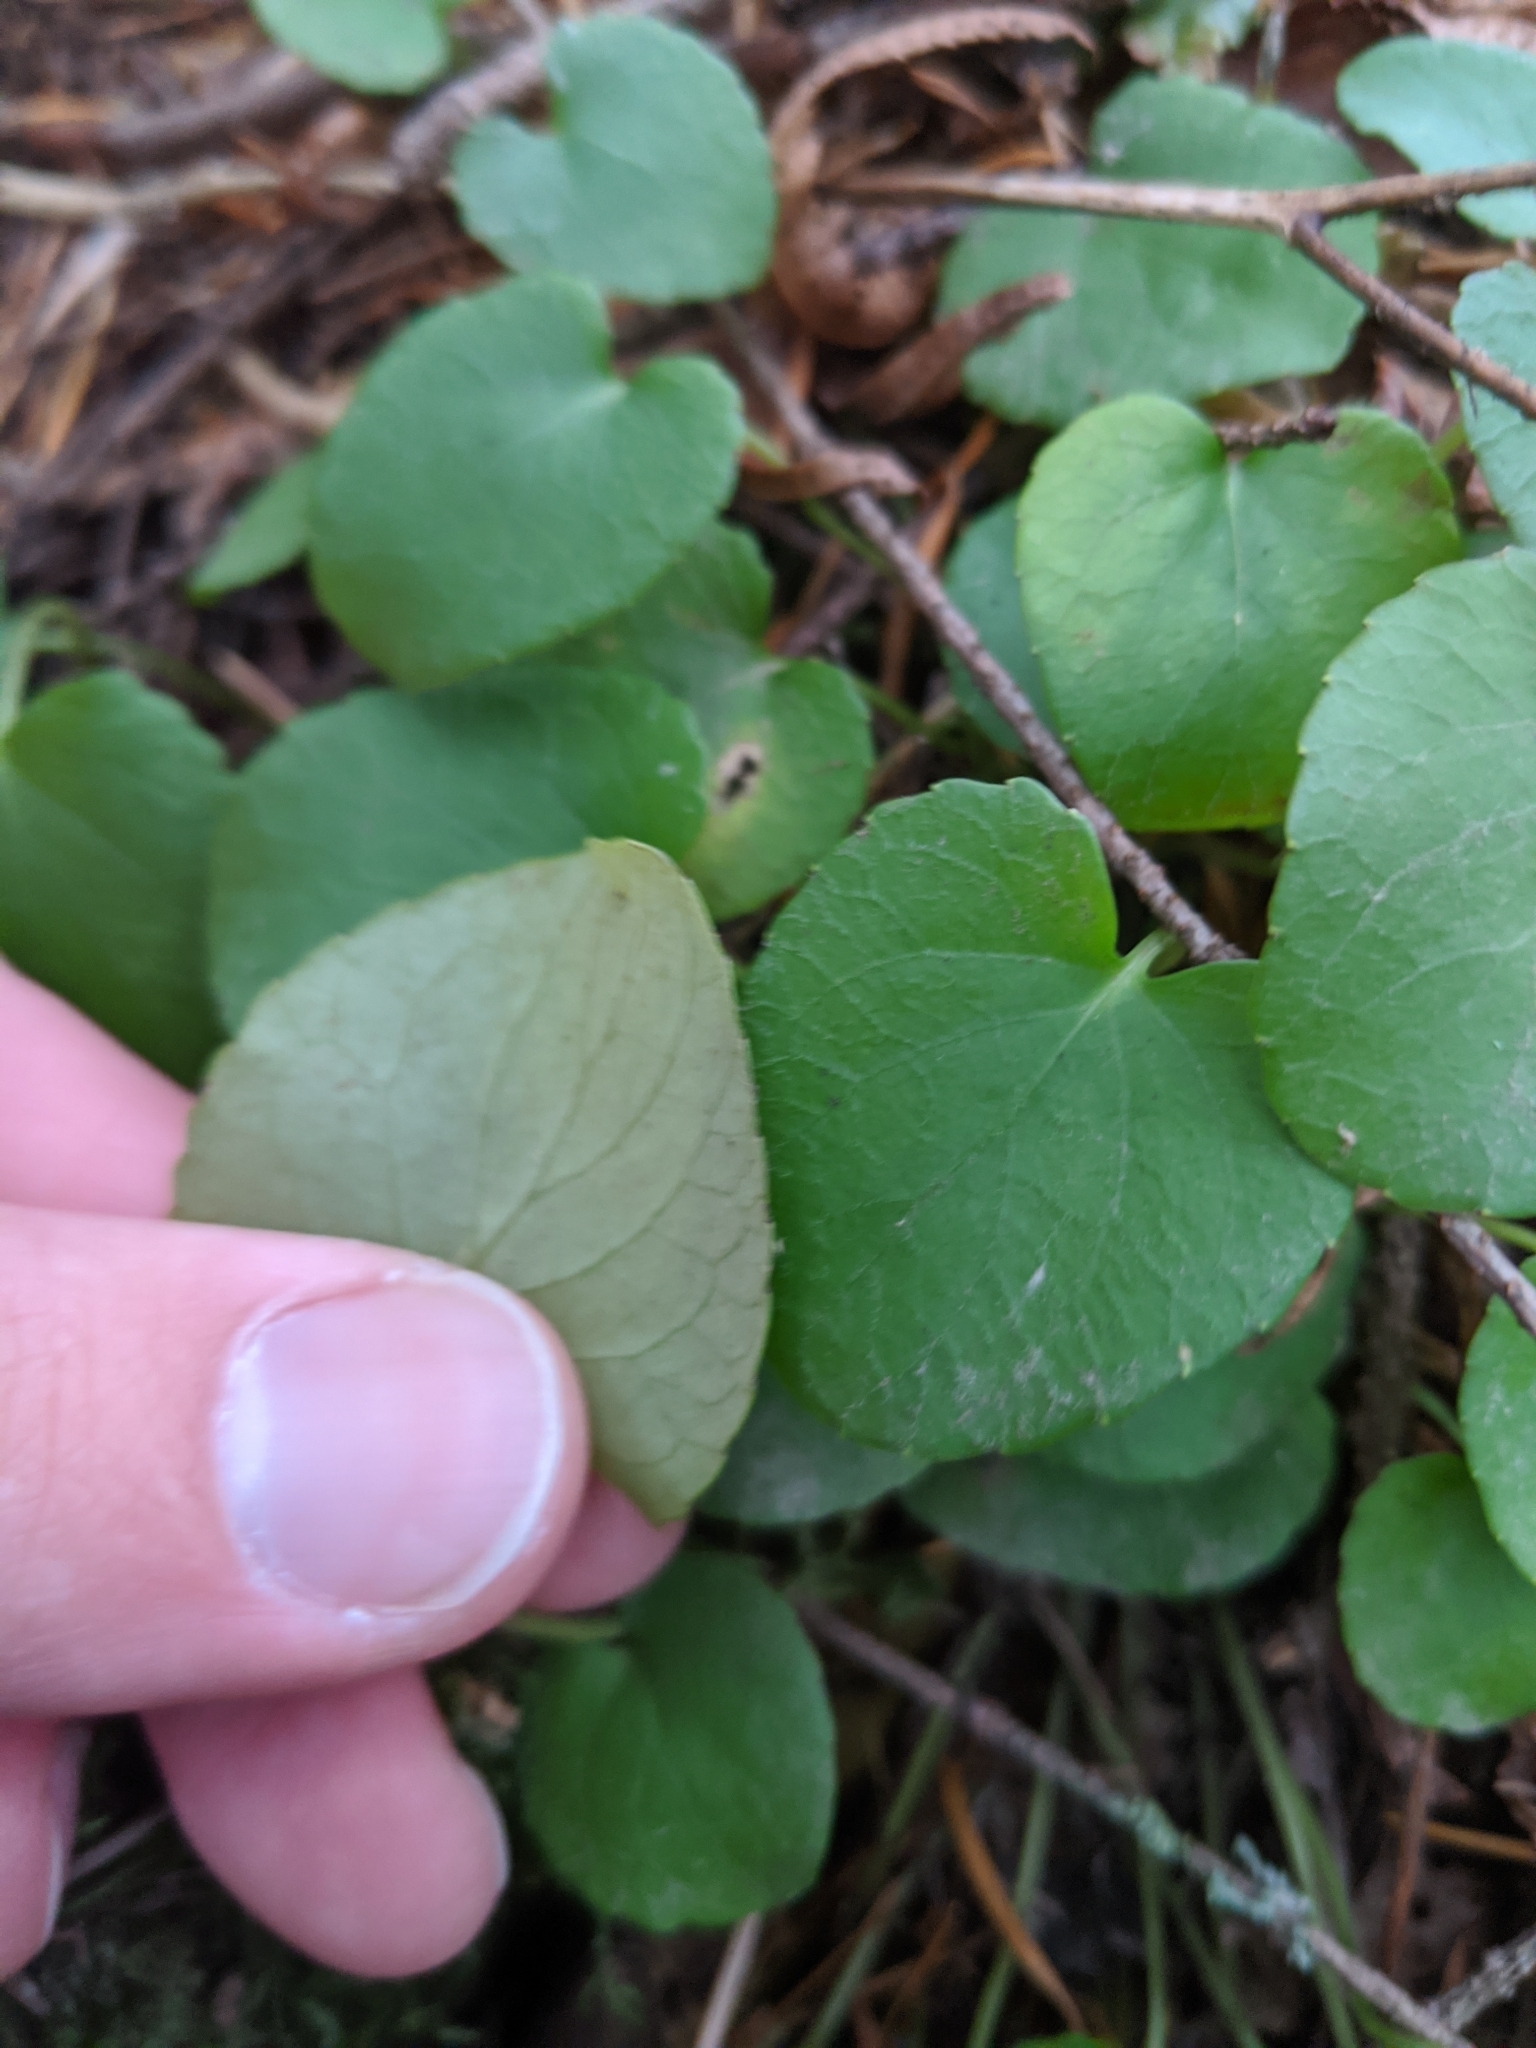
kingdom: Plantae
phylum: Tracheophyta
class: Magnoliopsida
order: Malpighiales
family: Violaceae
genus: Viola
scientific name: Viola sempervirens
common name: Evergreen violet
